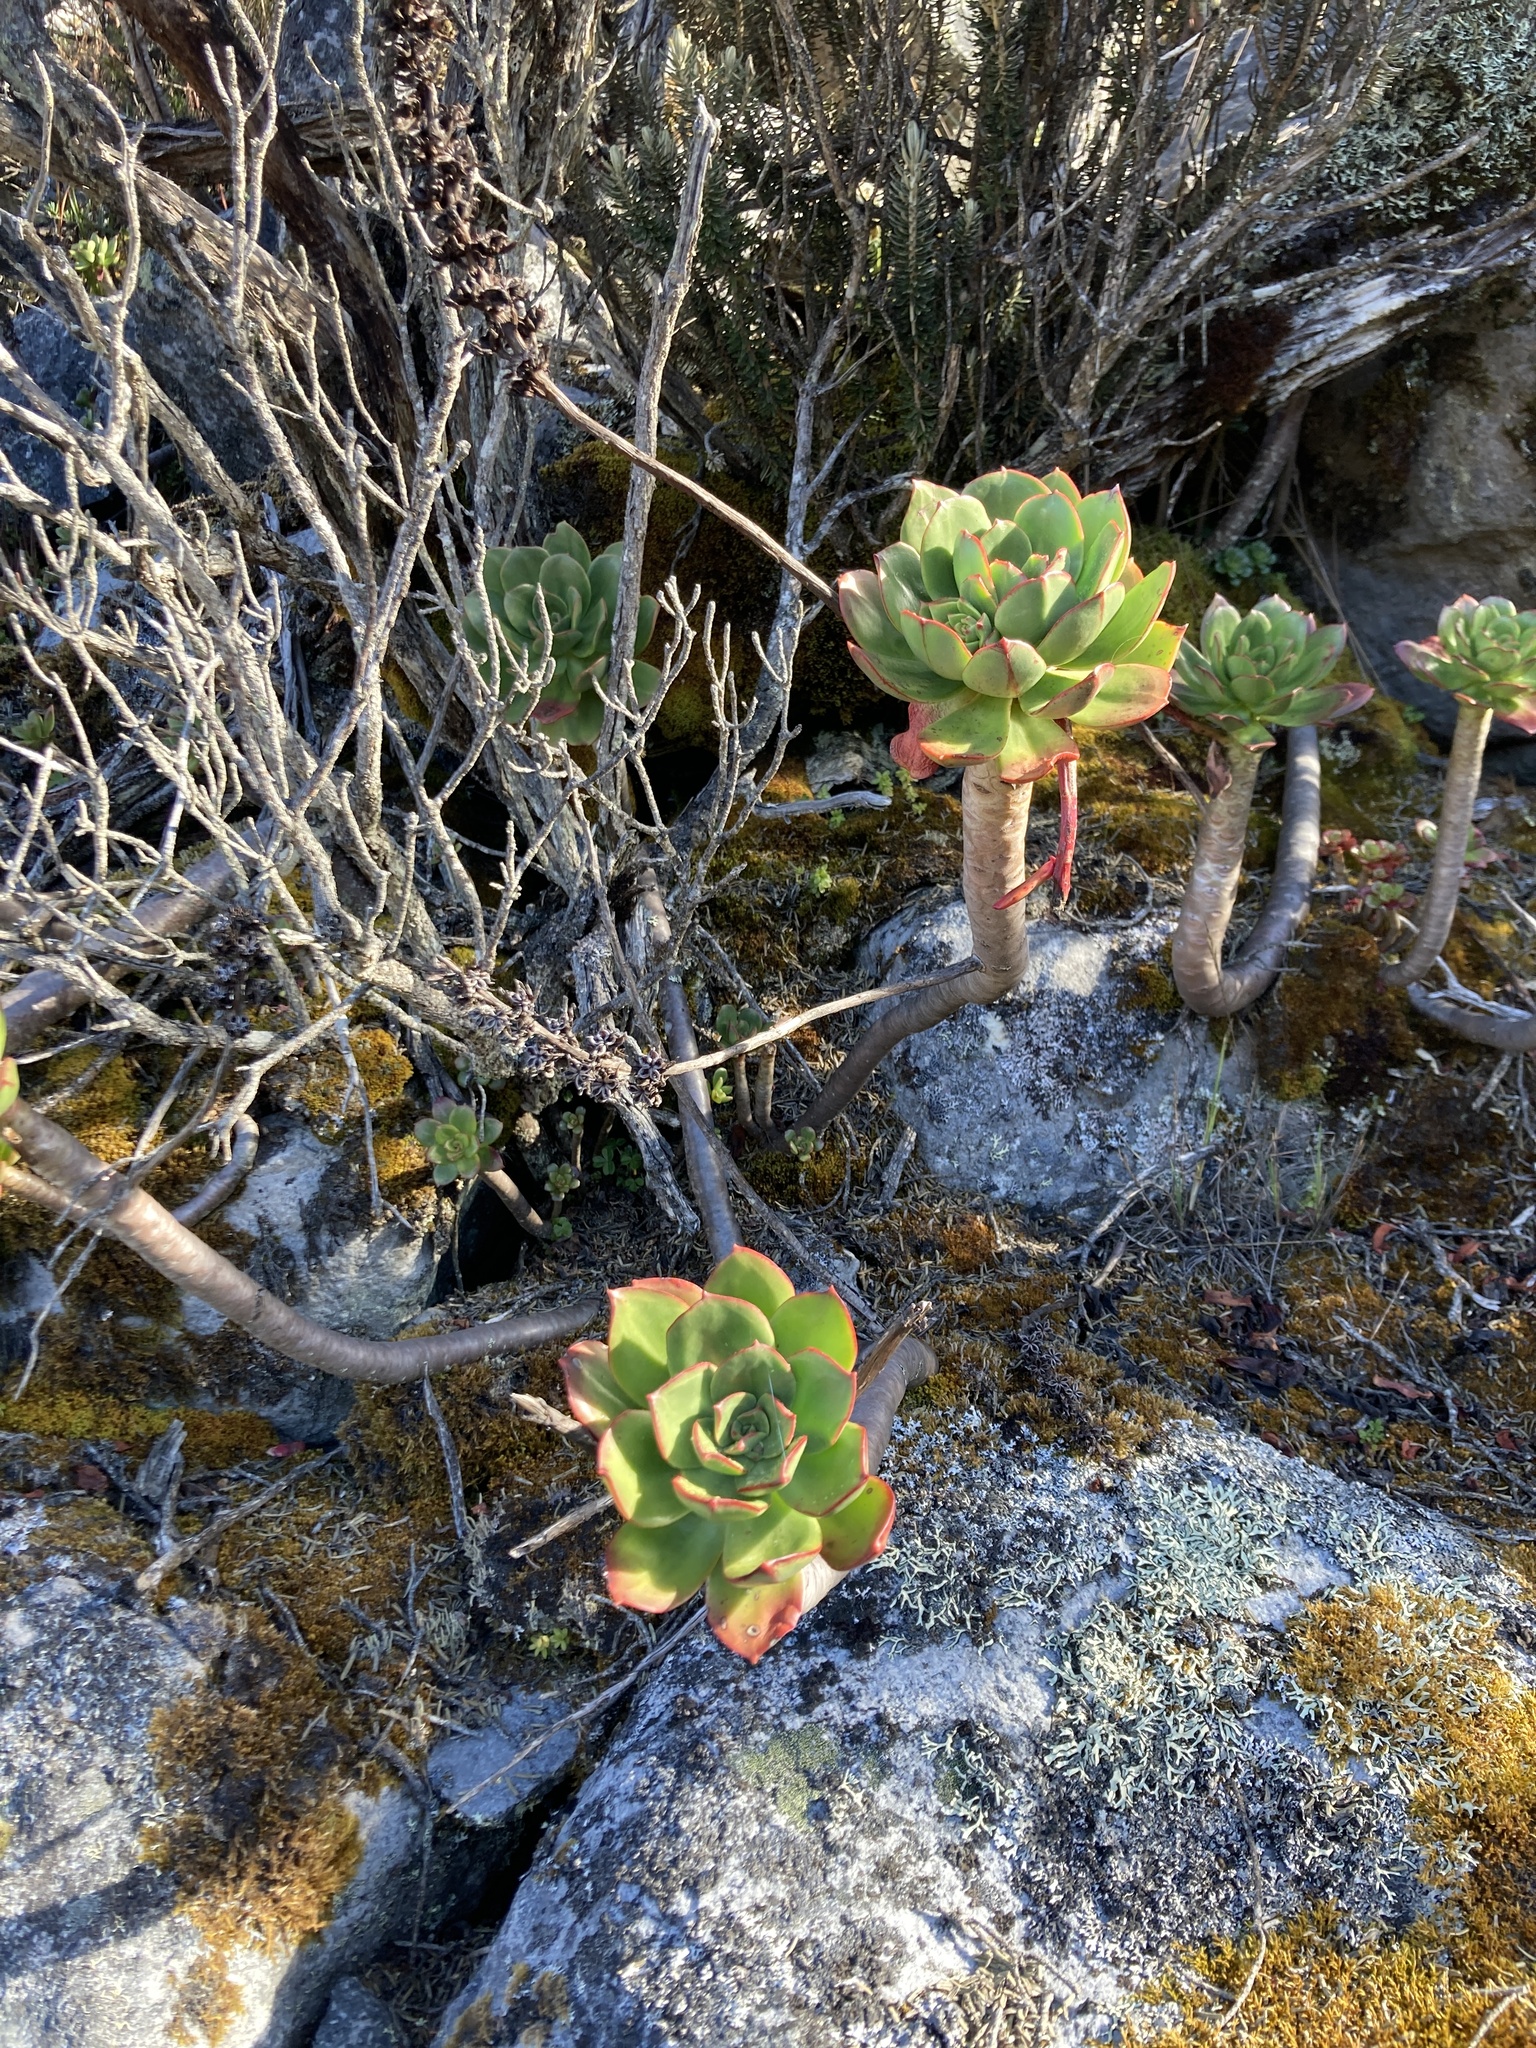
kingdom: Plantae
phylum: Tracheophyta
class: Magnoliopsida
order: Saxifragales
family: Crassulaceae
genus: Echeveria
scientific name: Echeveria bicolor
